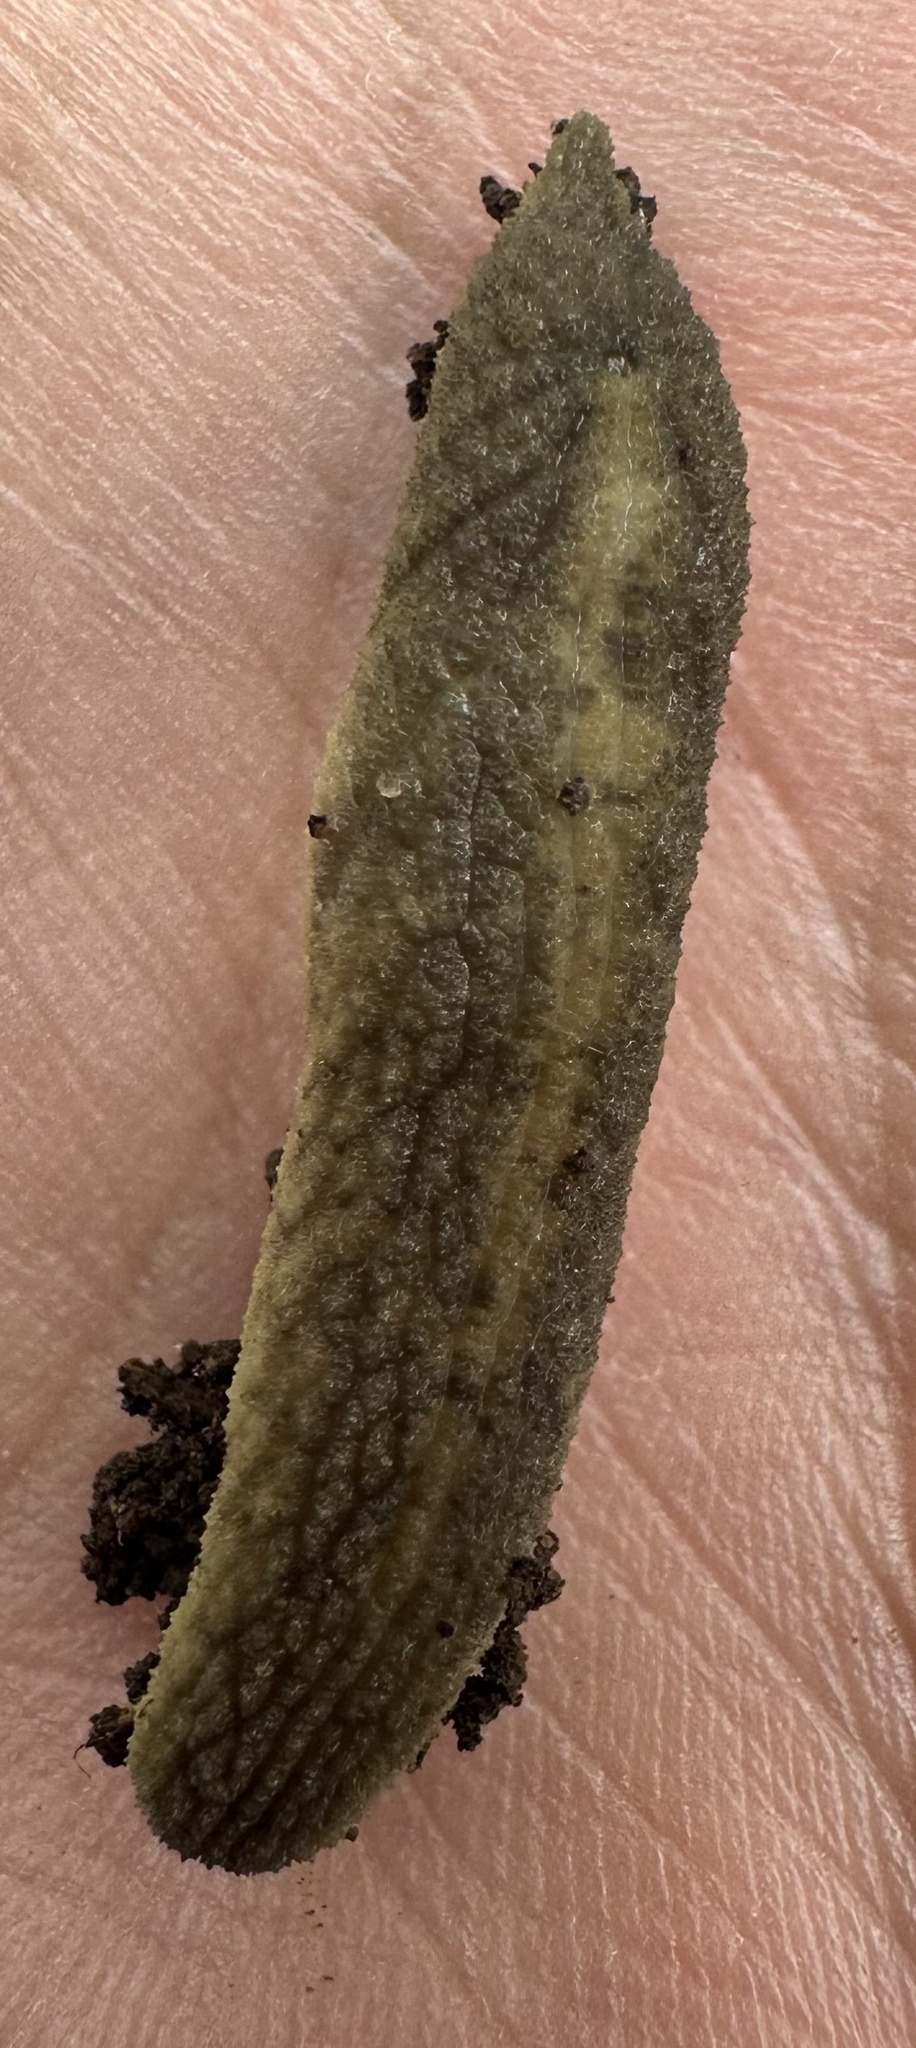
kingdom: Animalia
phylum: Mollusca
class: Gastropoda
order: Stylommatophora
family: Rhytididae
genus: Chlamydephorus
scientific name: Chlamydephorus gibbonsi
